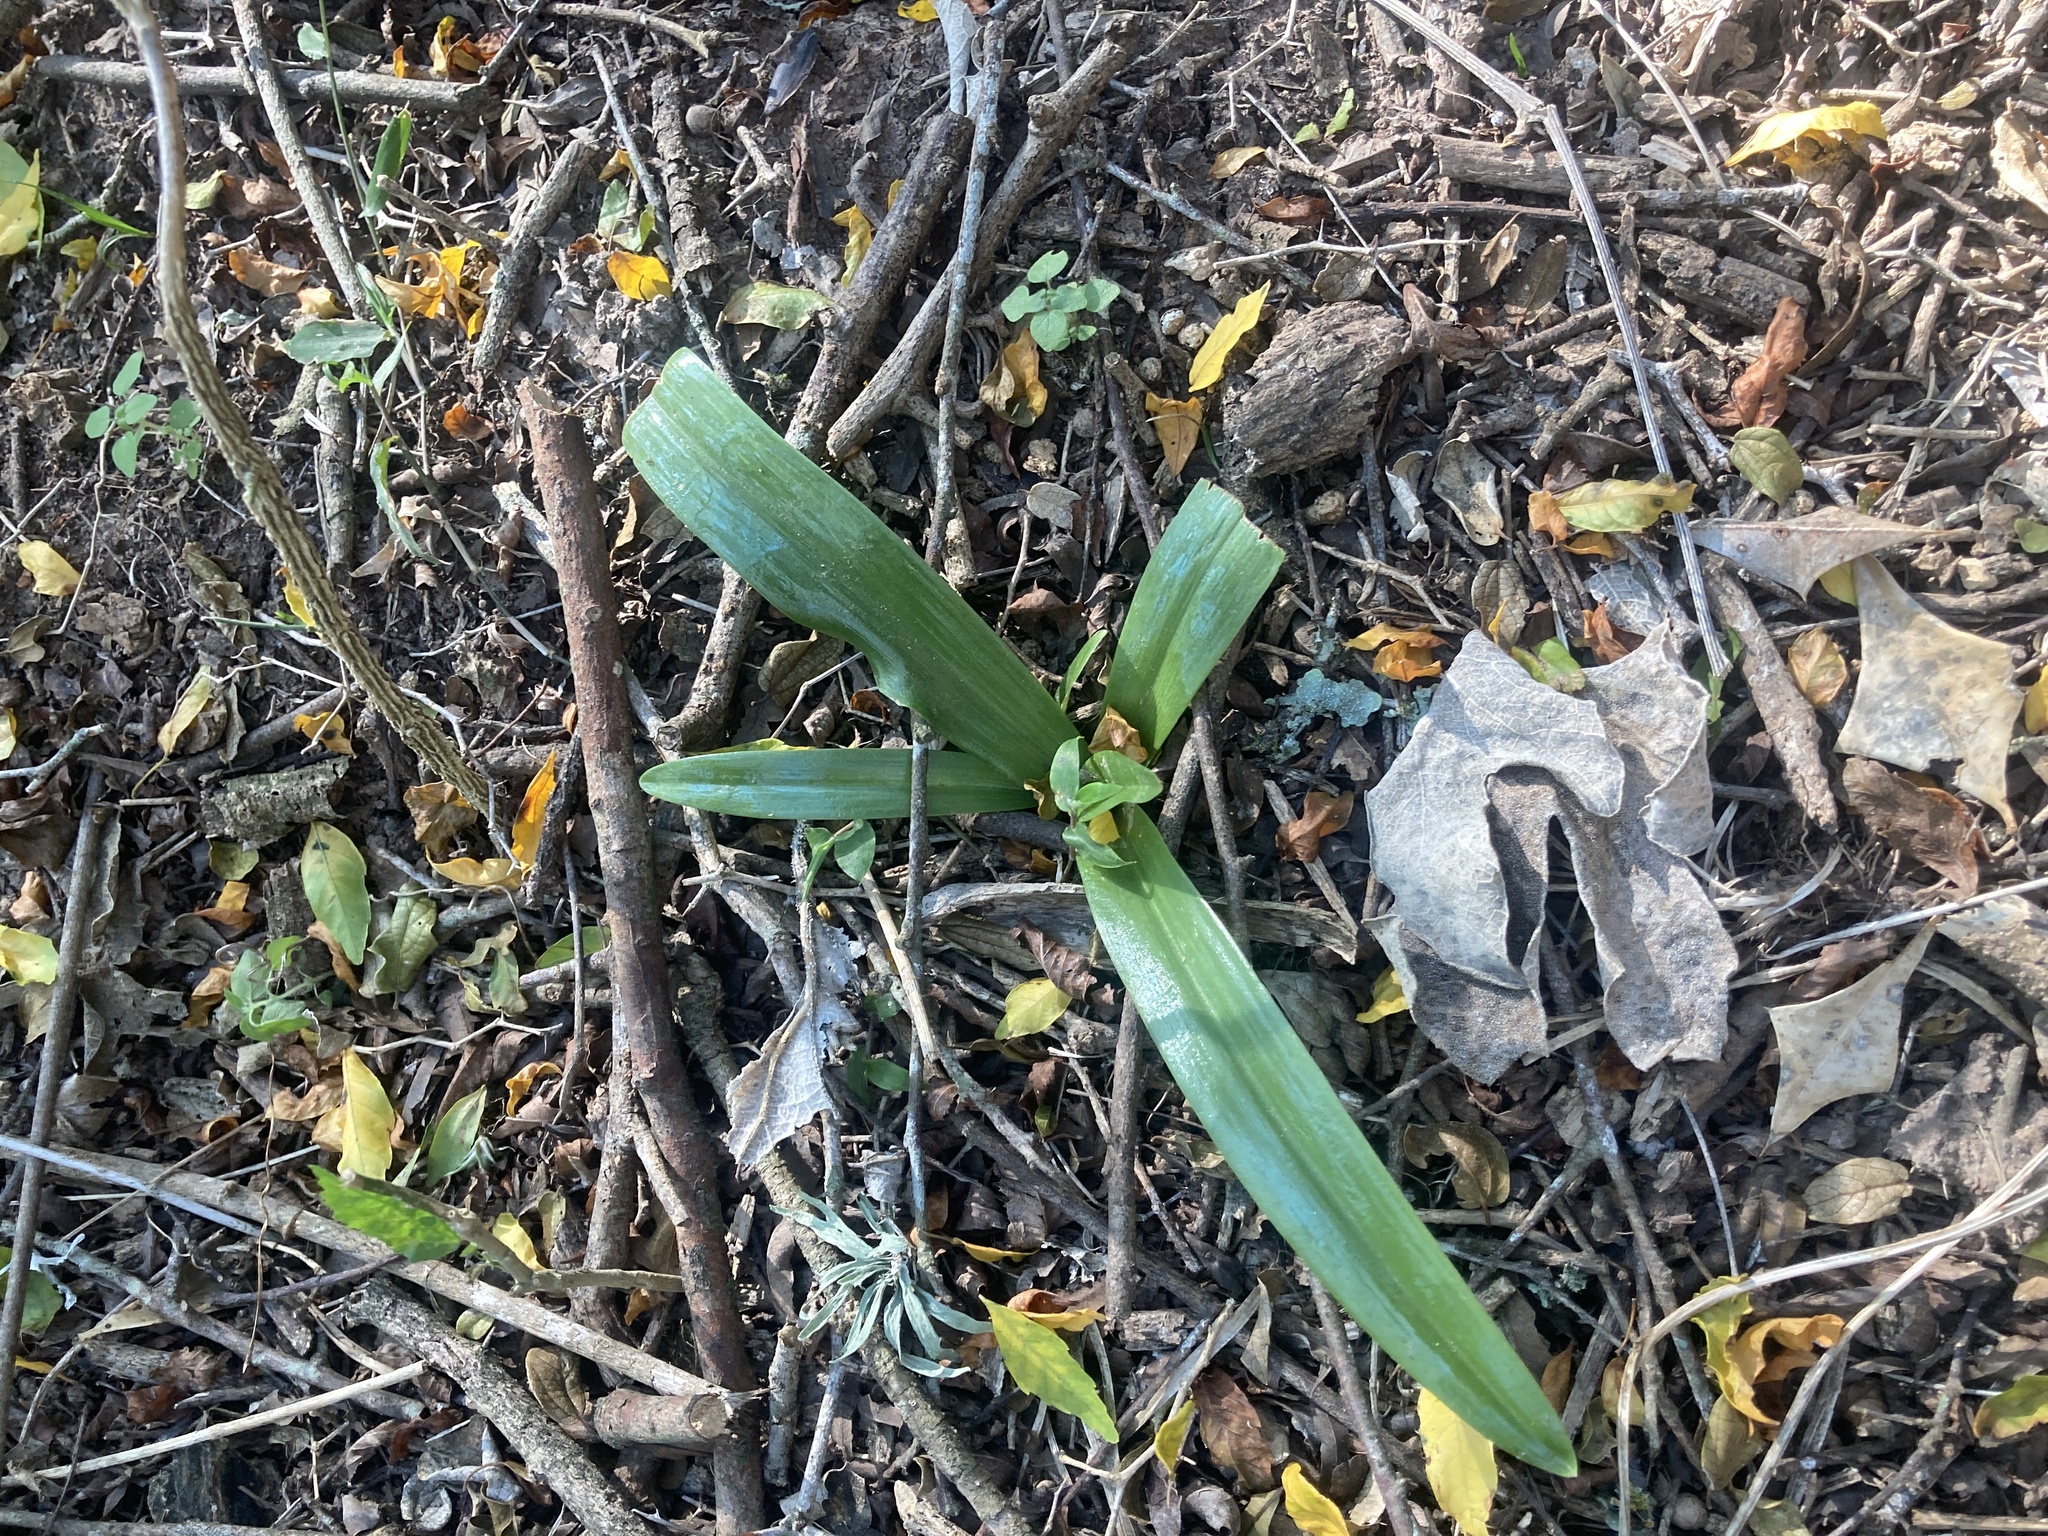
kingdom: Plantae
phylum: Tracheophyta
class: Liliopsida
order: Asparagales
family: Orchidaceae
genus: Chloraea
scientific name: Chloraea membranacea
